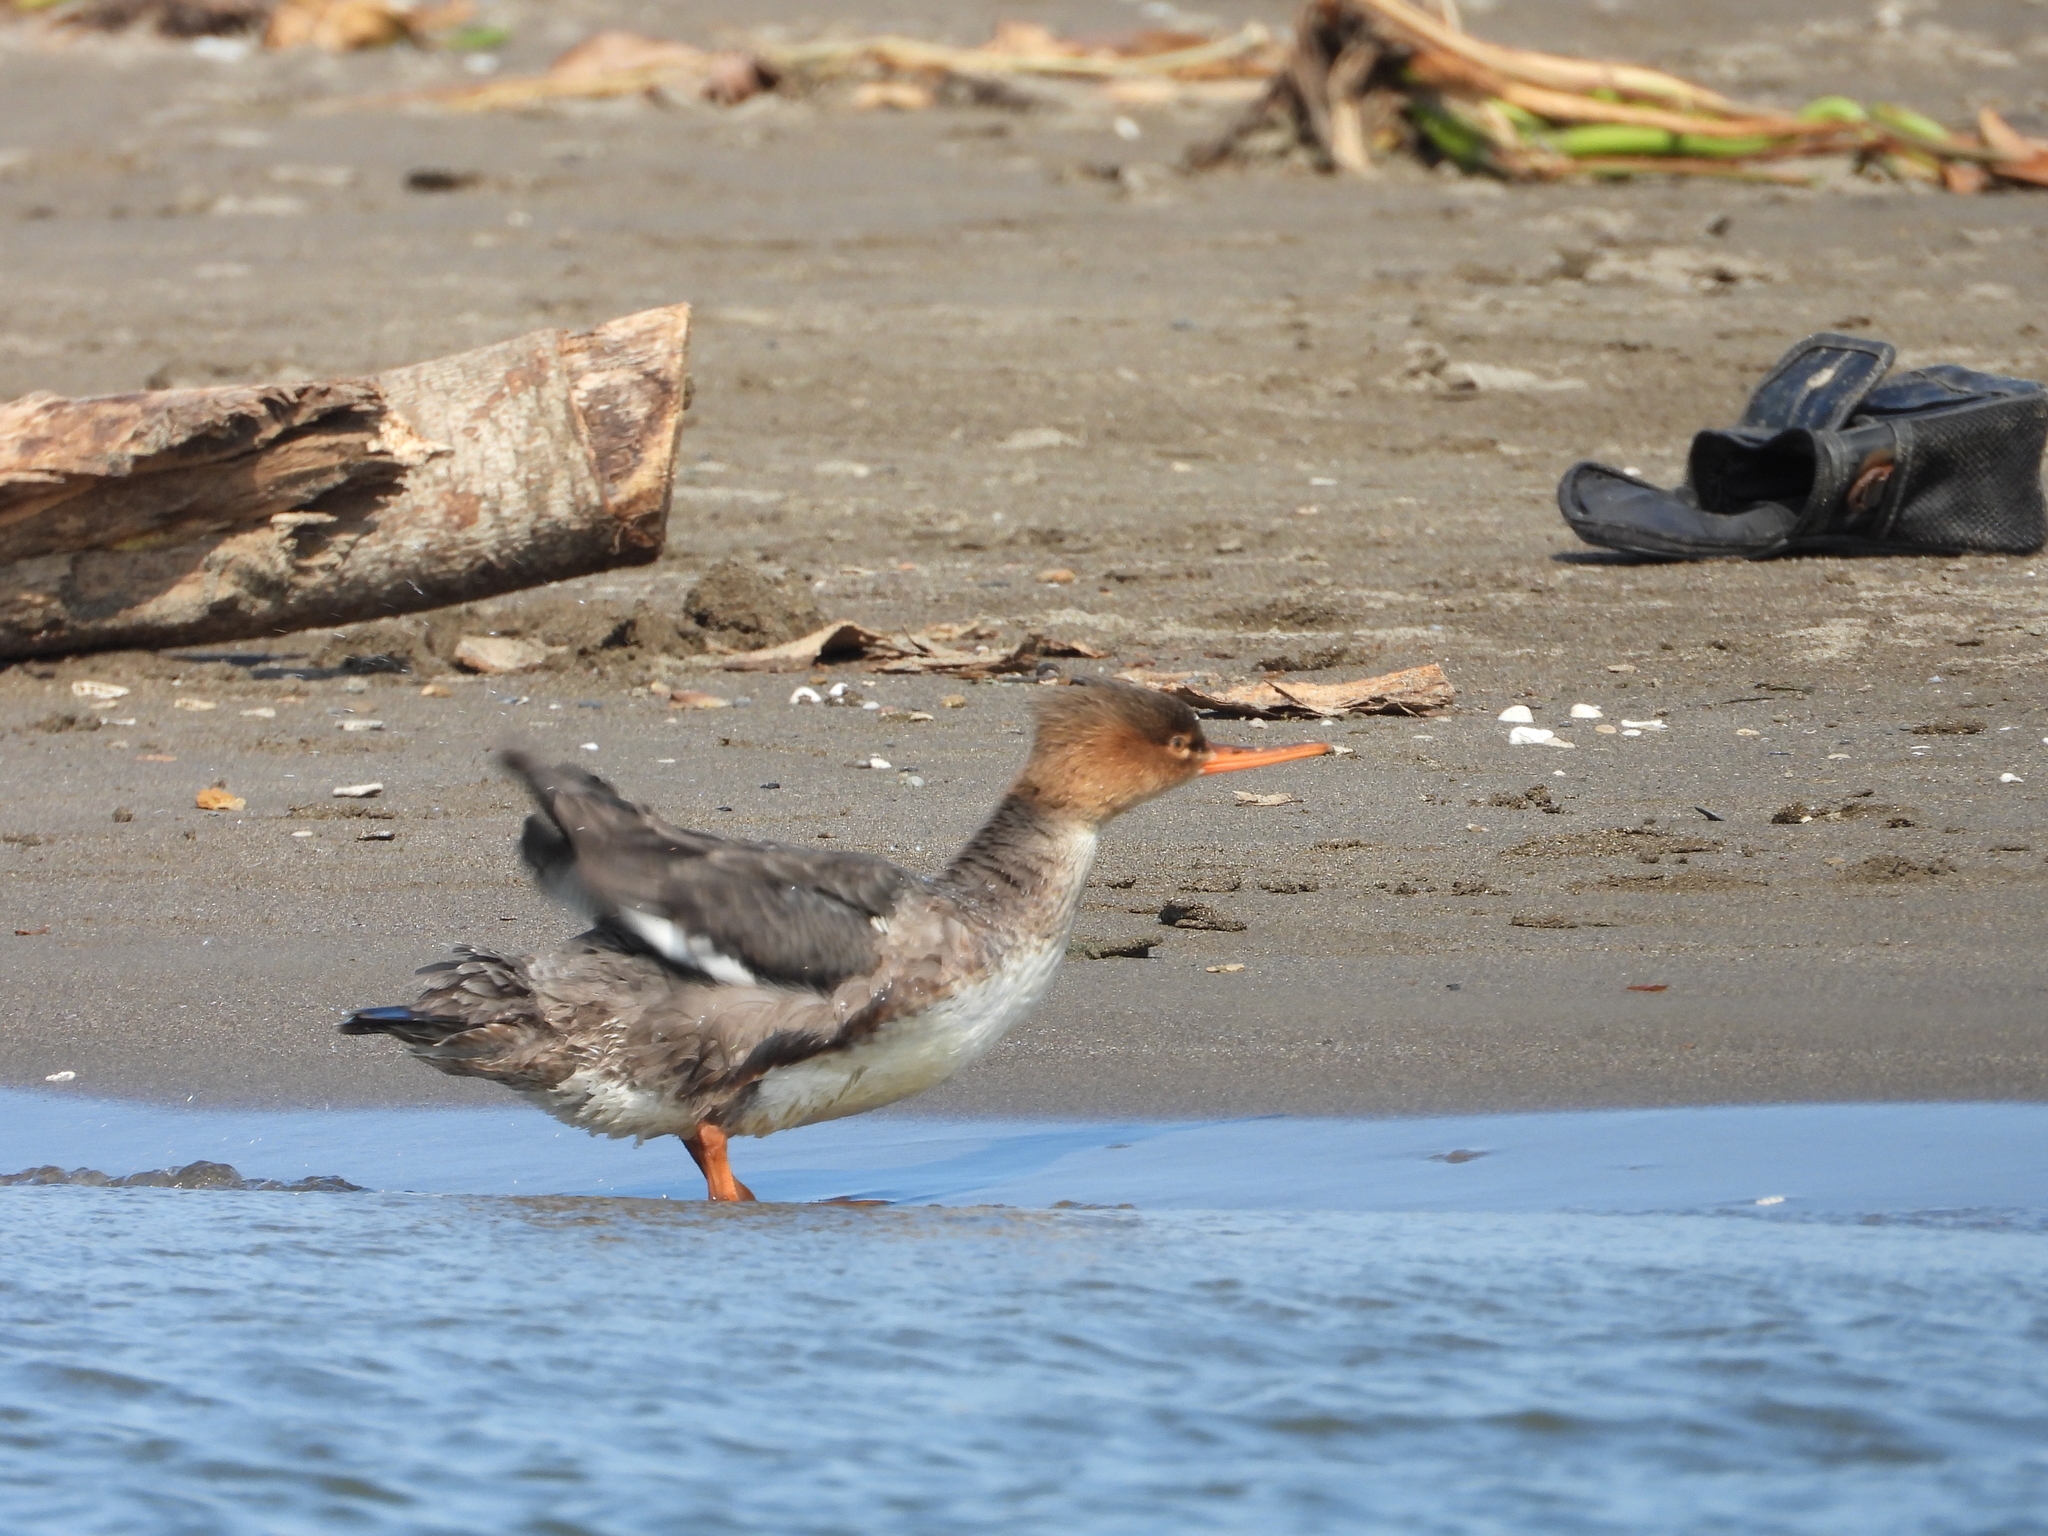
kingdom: Animalia
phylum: Chordata
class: Aves
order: Anseriformes
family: Anatidae
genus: Mergus
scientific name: Mergus serrator
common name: Red-breasted merganser
